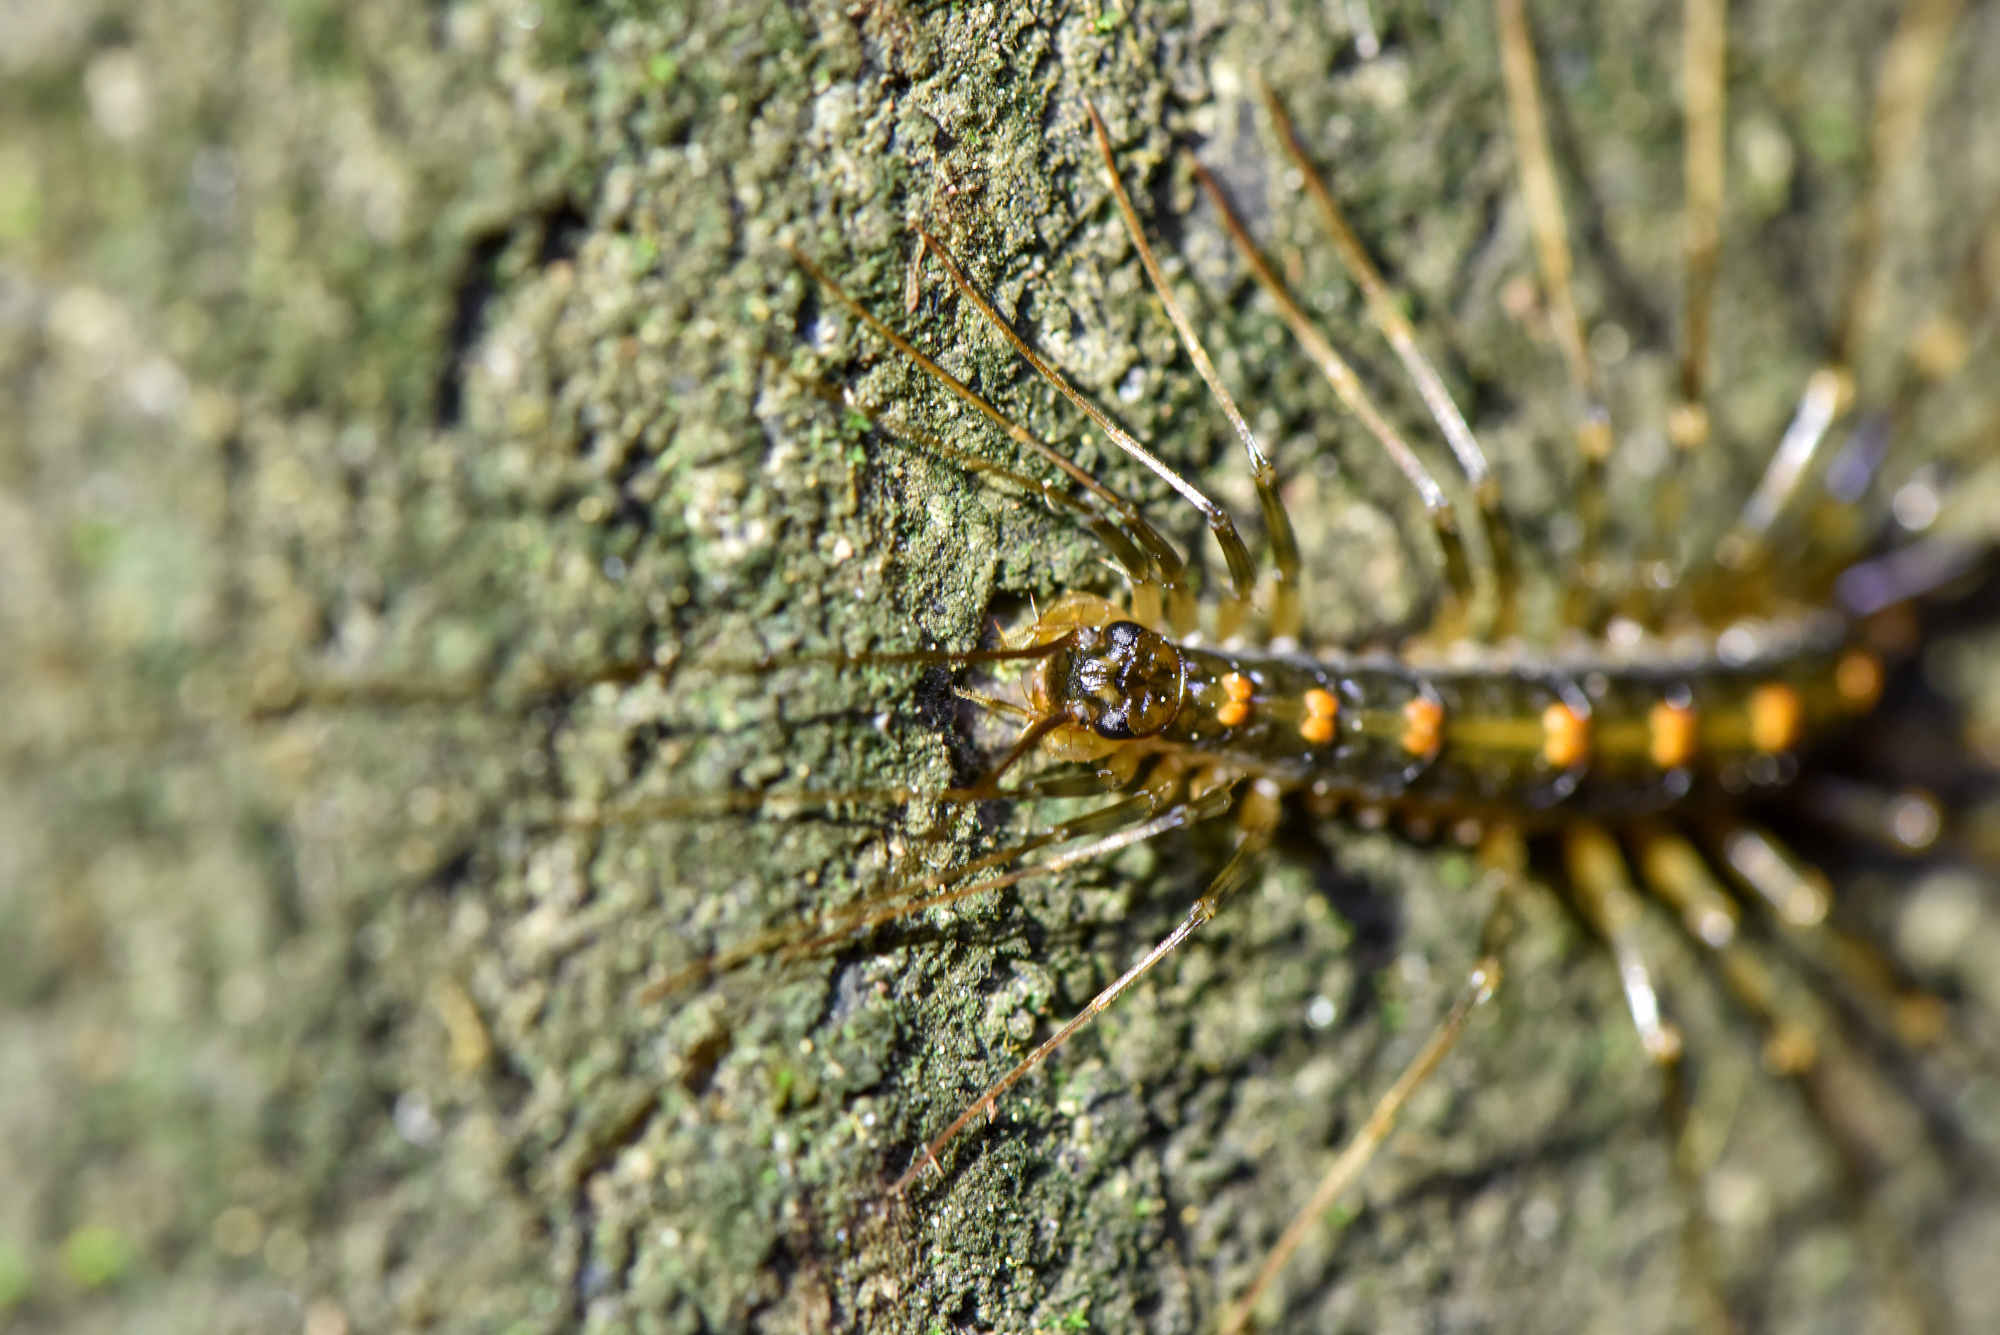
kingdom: Animalia
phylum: Arthropoda
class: Chilopoda
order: Scutigeromorpha
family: Scutigeridae
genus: Scutigera
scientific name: Scutigera coleoptrata
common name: House centipede
